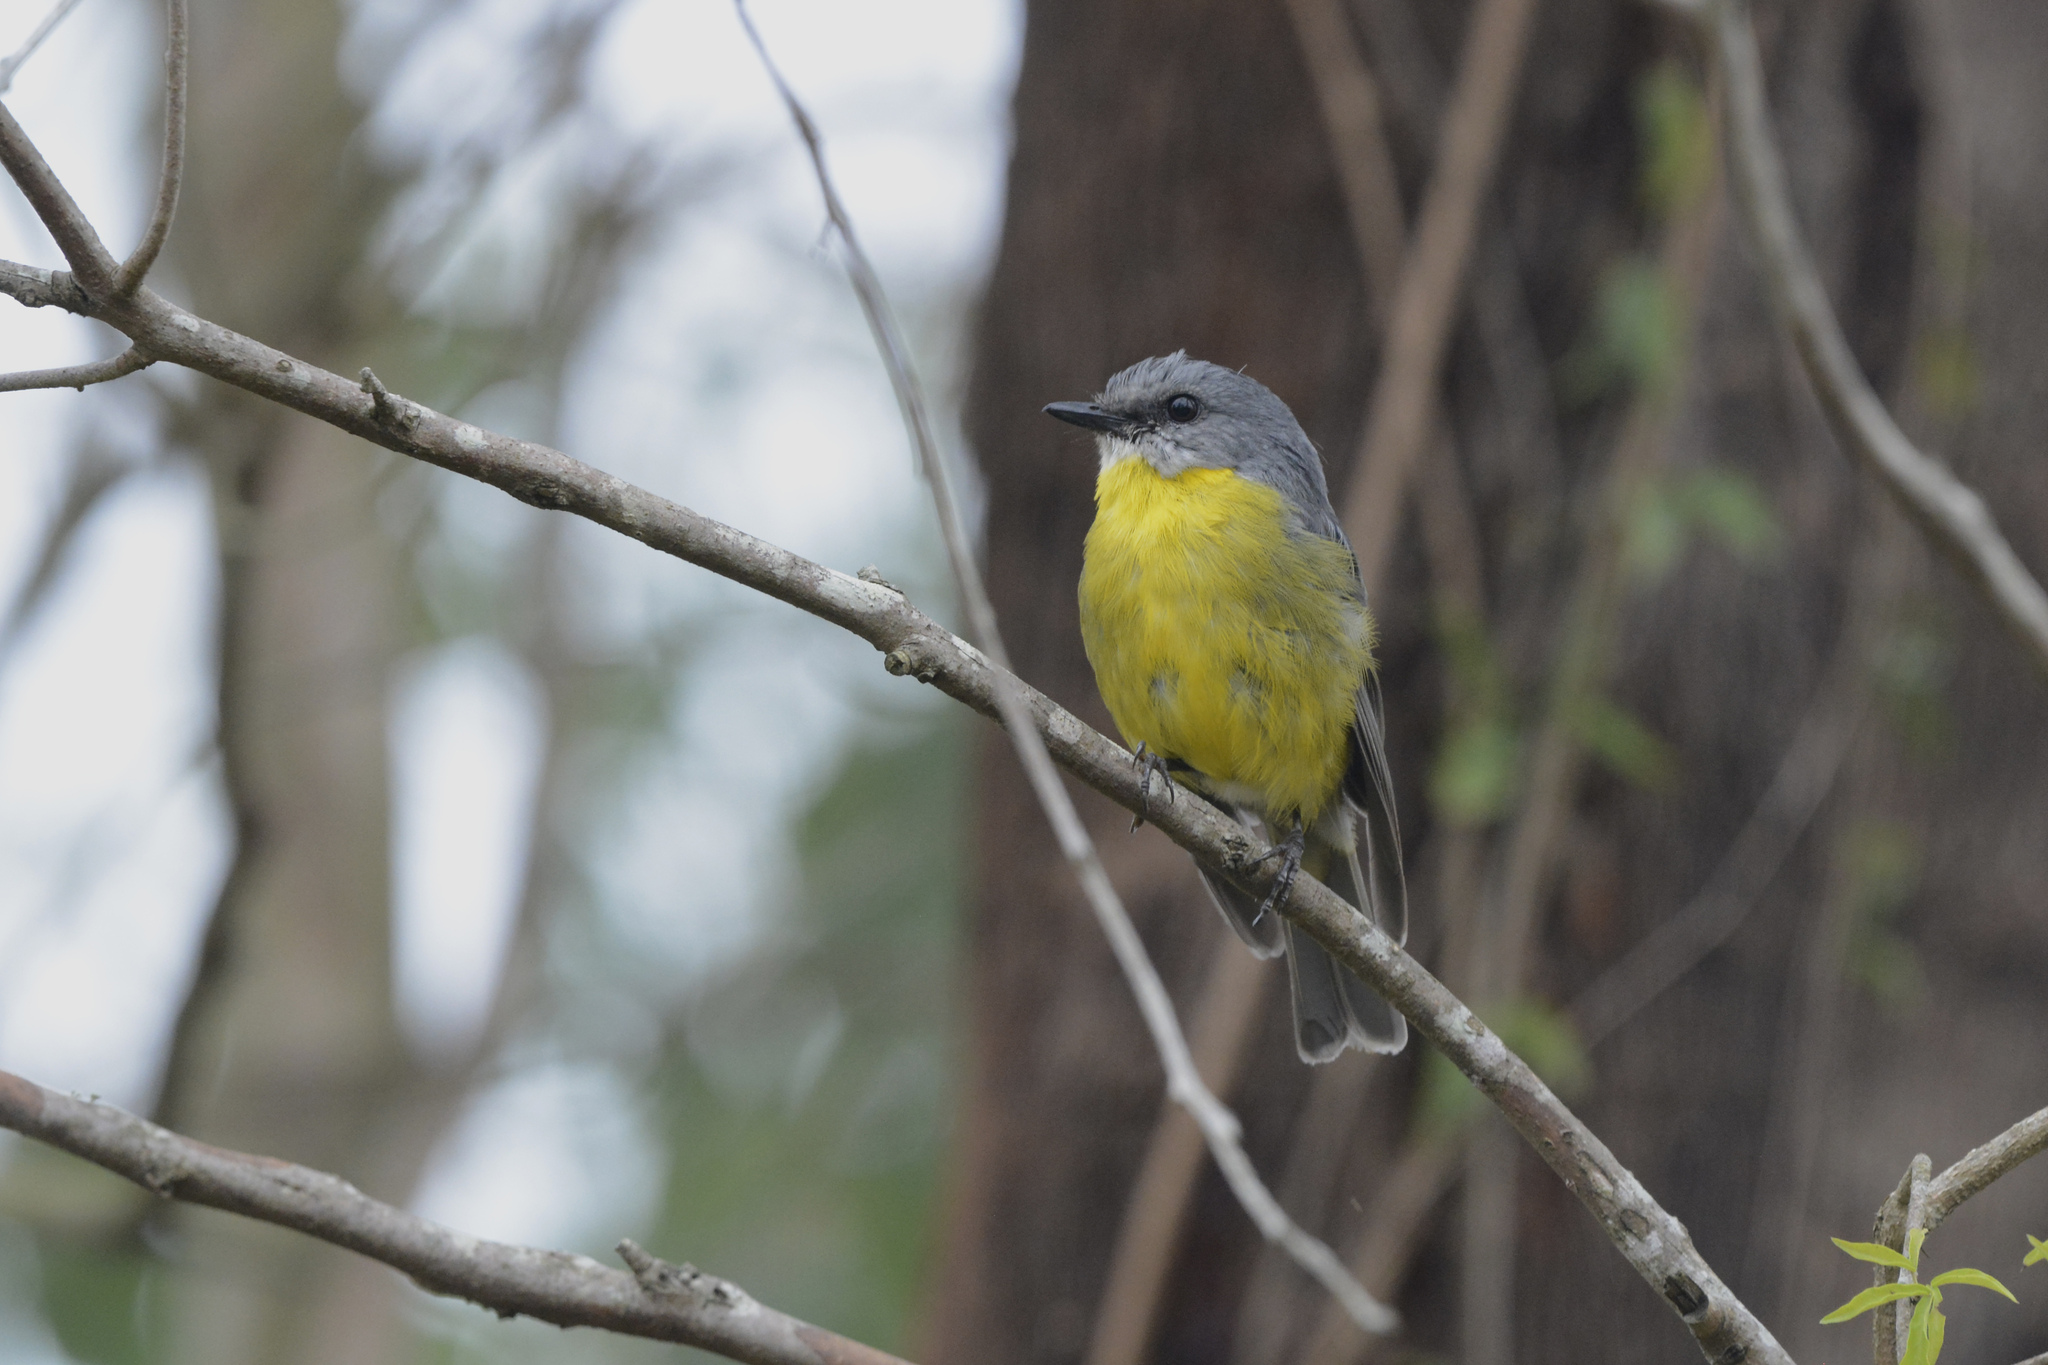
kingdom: Animalia
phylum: Chordata
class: Aves
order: Passeriformes
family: Petroicidae
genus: Eopsaltria
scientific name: Eopsaltria australis
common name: Eastern yellow robin
